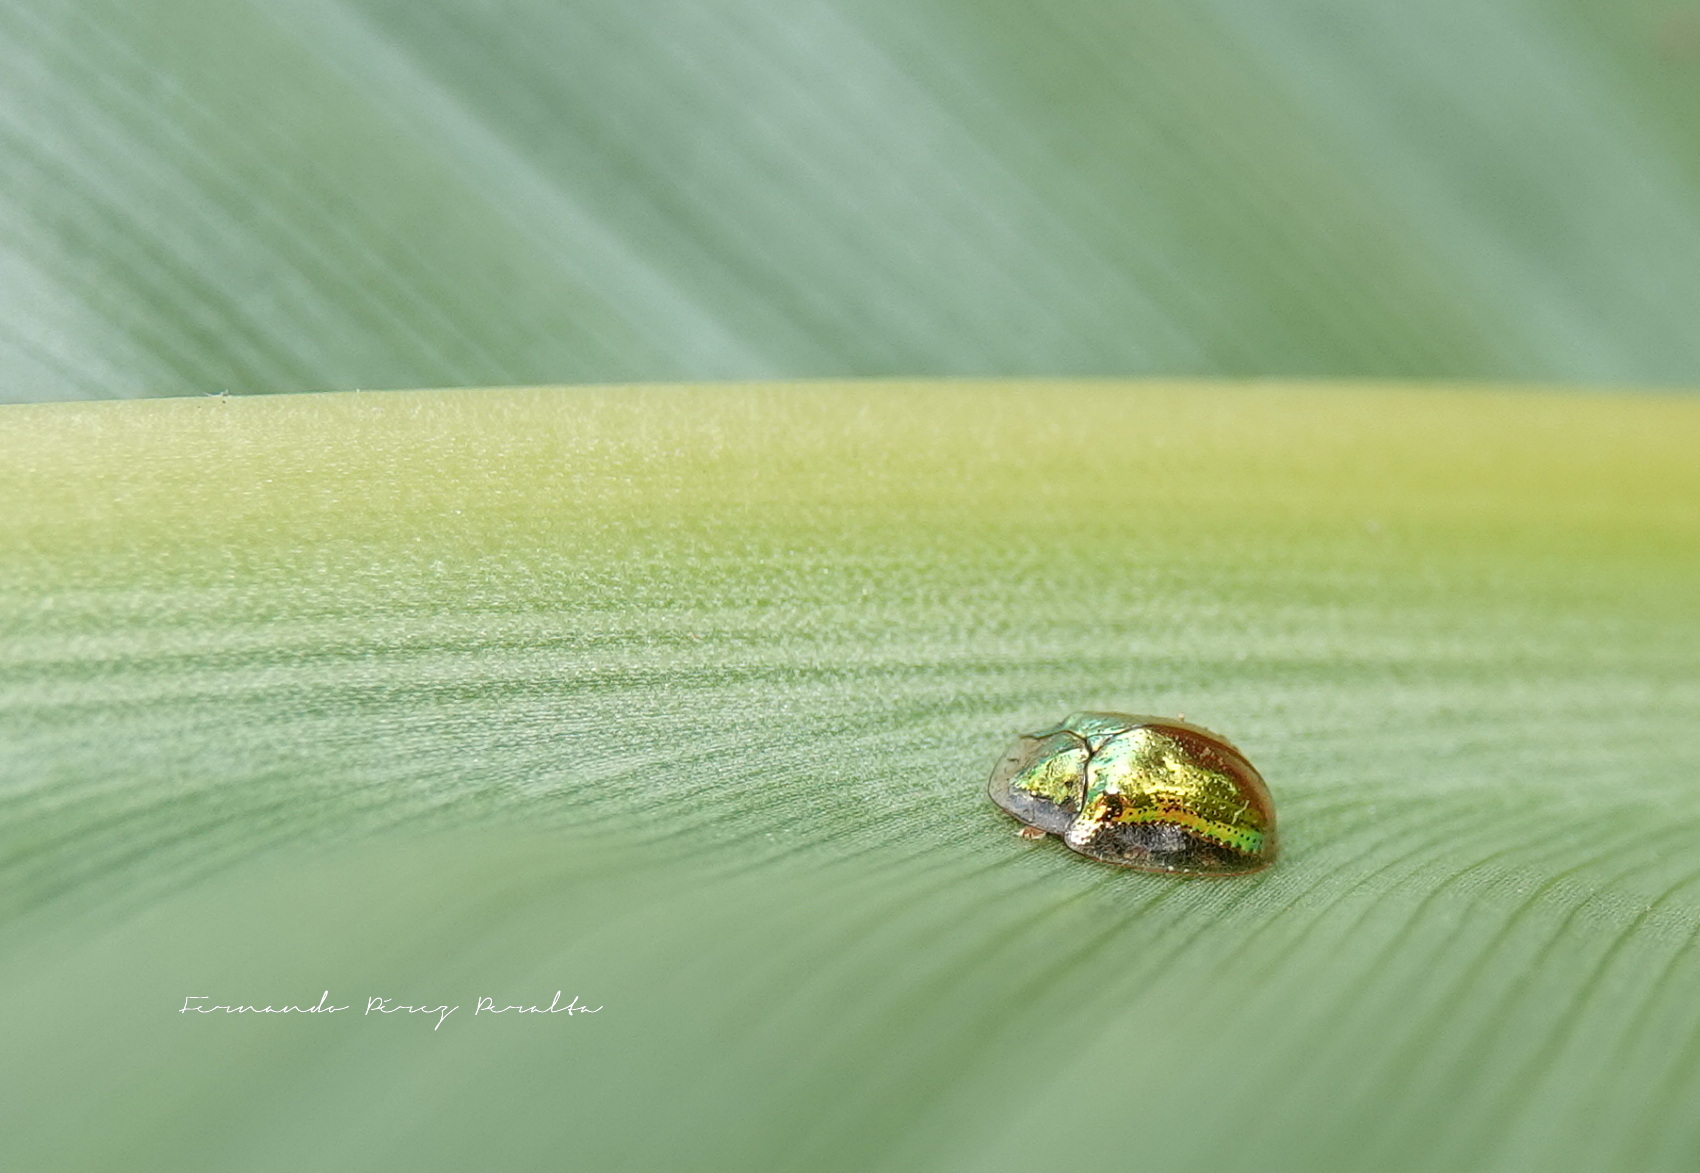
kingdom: Animalia
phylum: Arthropoda
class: Insecta
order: Coleoptera
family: Chrysomelidae
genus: Charidotella
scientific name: Charidotella succinea
